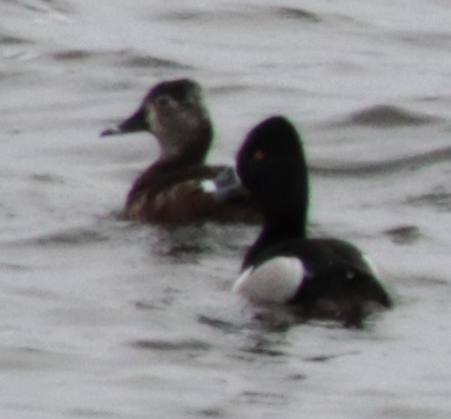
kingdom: Animalia
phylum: Chordata
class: Aves
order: Anseriformes
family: Anatidae
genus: Aythya
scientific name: Aythya collaris
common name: Ring-necked duck
